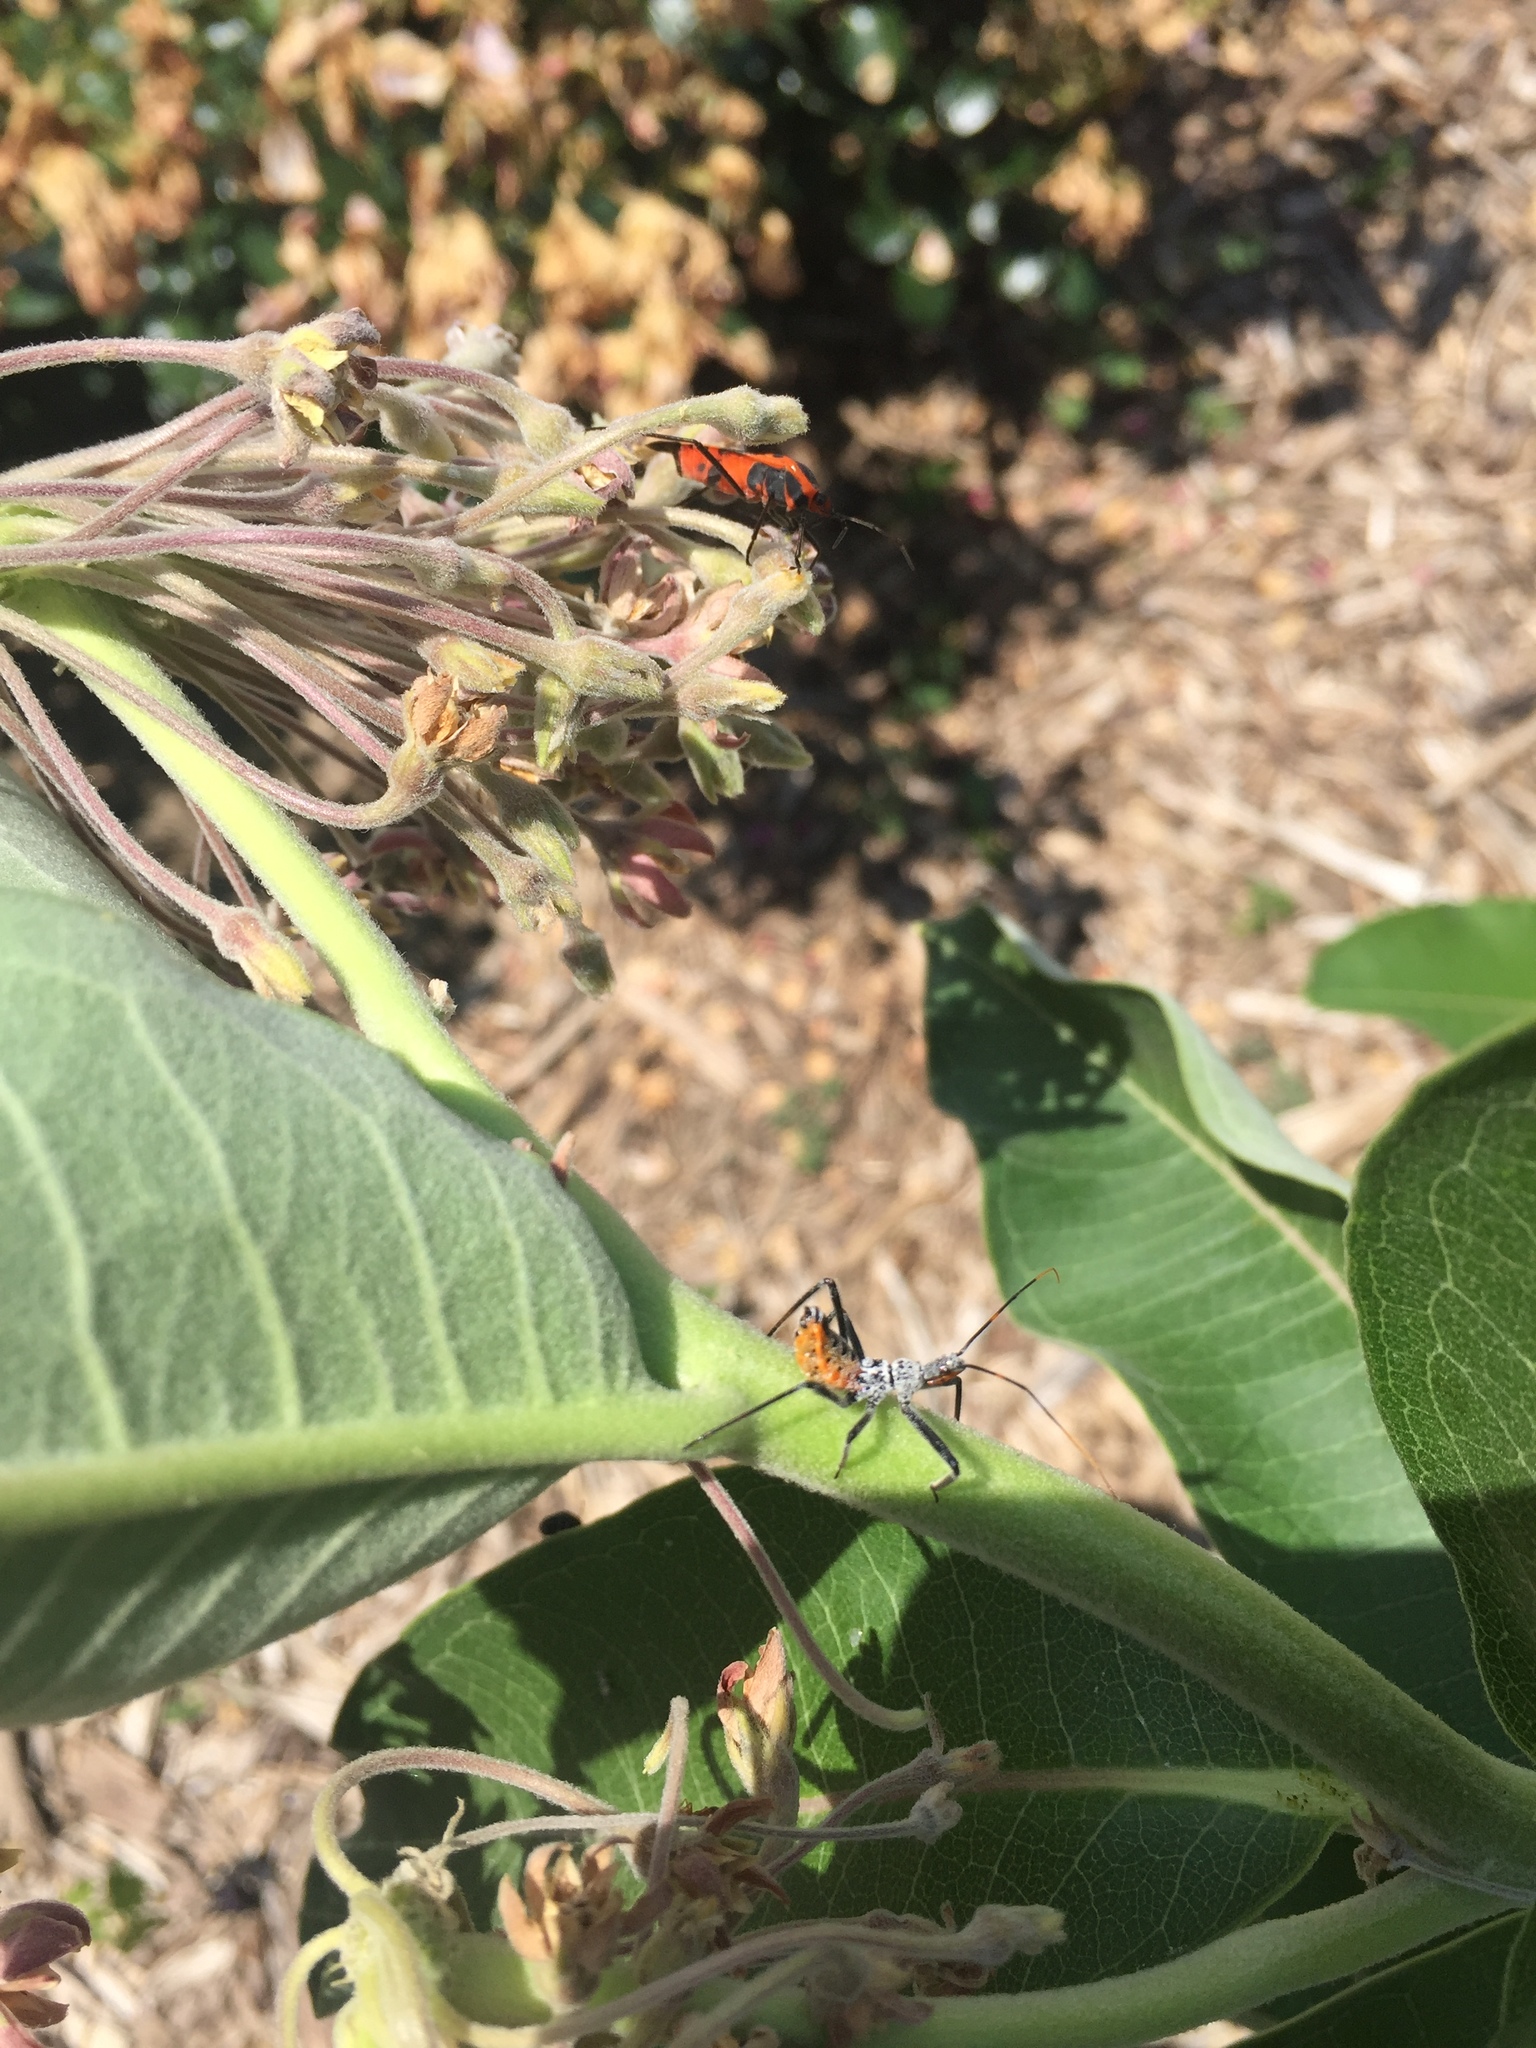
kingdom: Animalia
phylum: Arthropoda
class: Insecta
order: Hemiptera
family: Lygaeidae
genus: Oncopeltus
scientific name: Oncopeltus fasciatus
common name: Large milkweed bug
